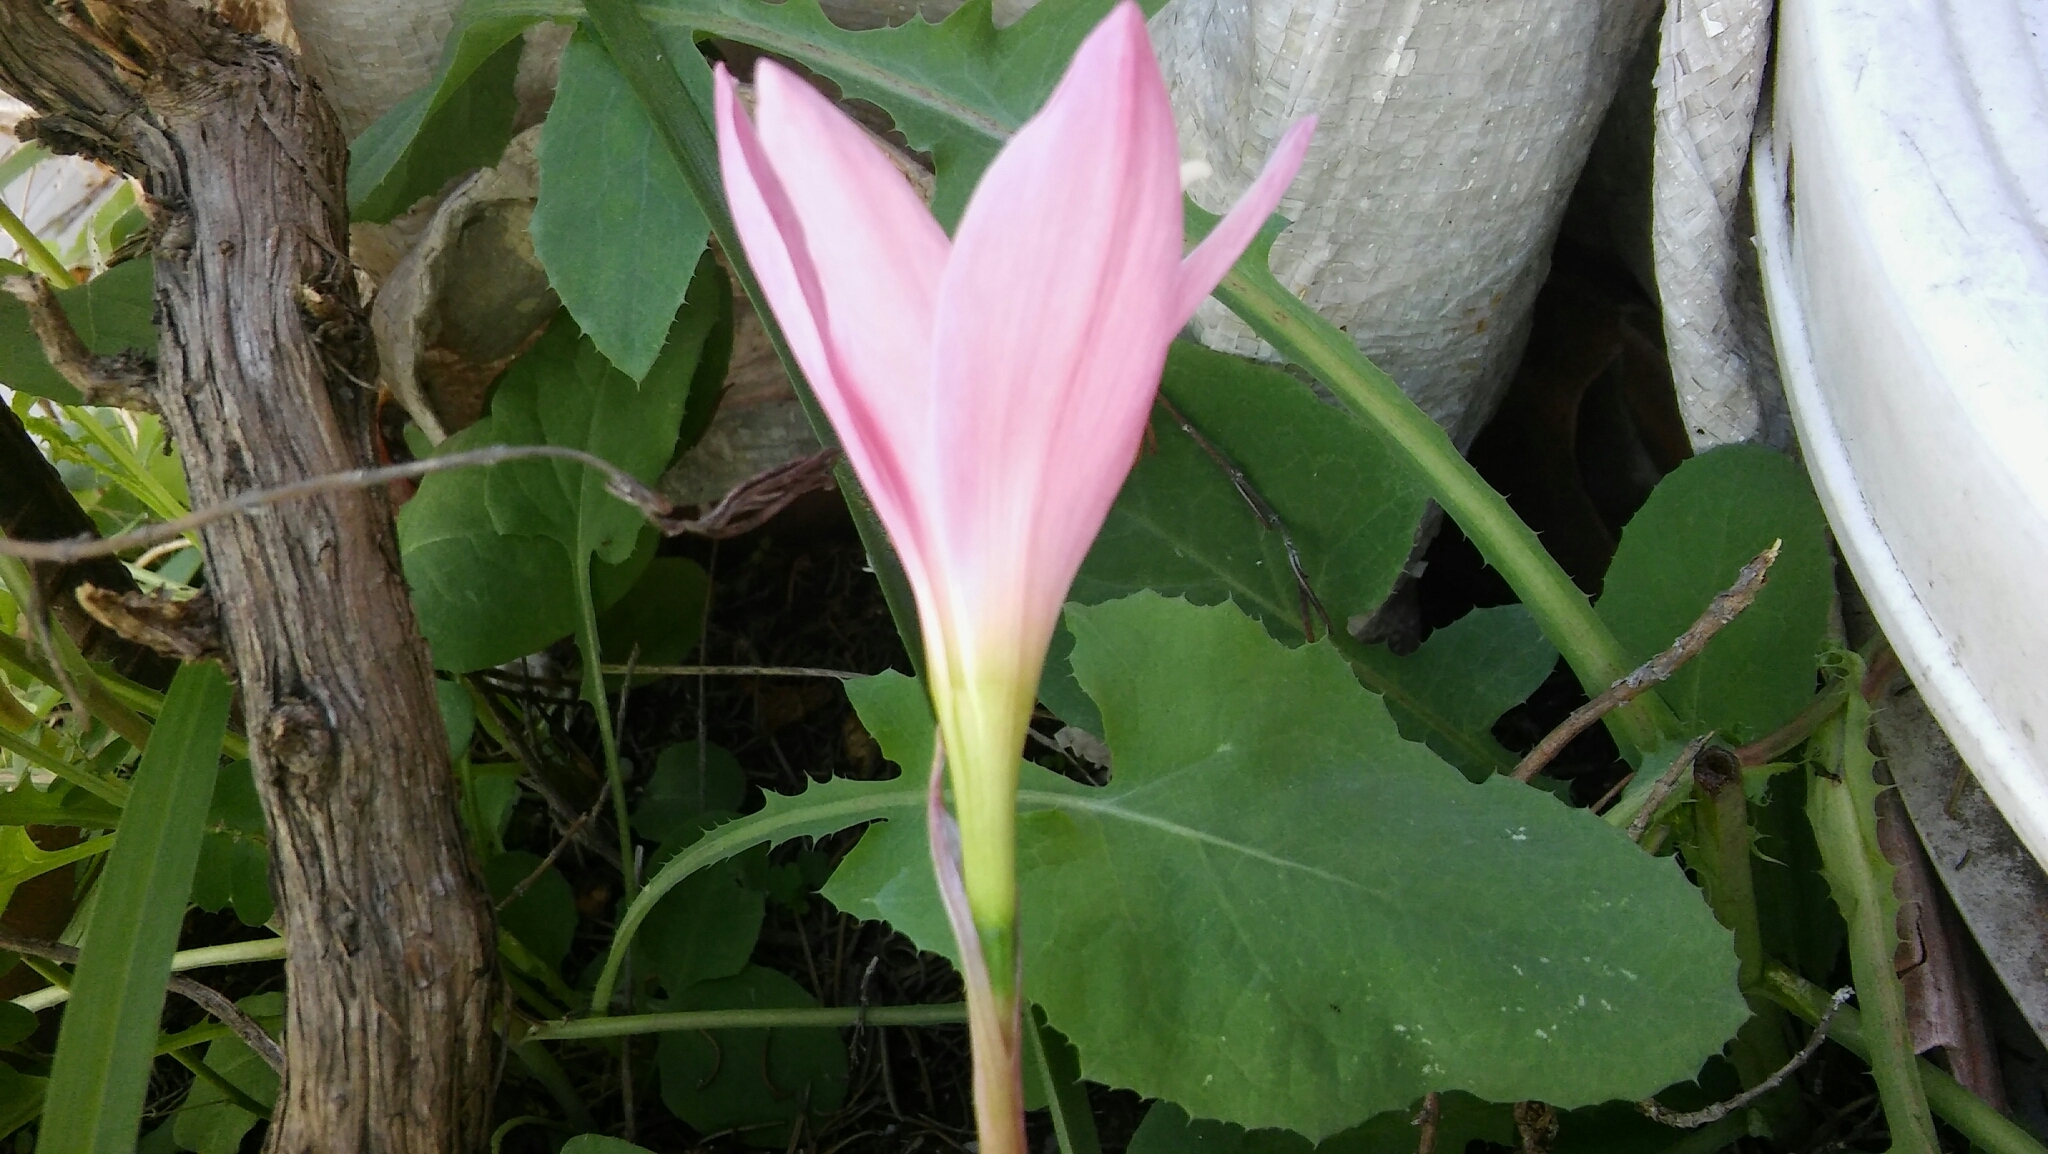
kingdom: Plantae
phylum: Tracheophyta
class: Liliopsida
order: Asparagales
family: Amaryllidaceae
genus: Zephyranthes
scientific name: Zephyranthes carinata
